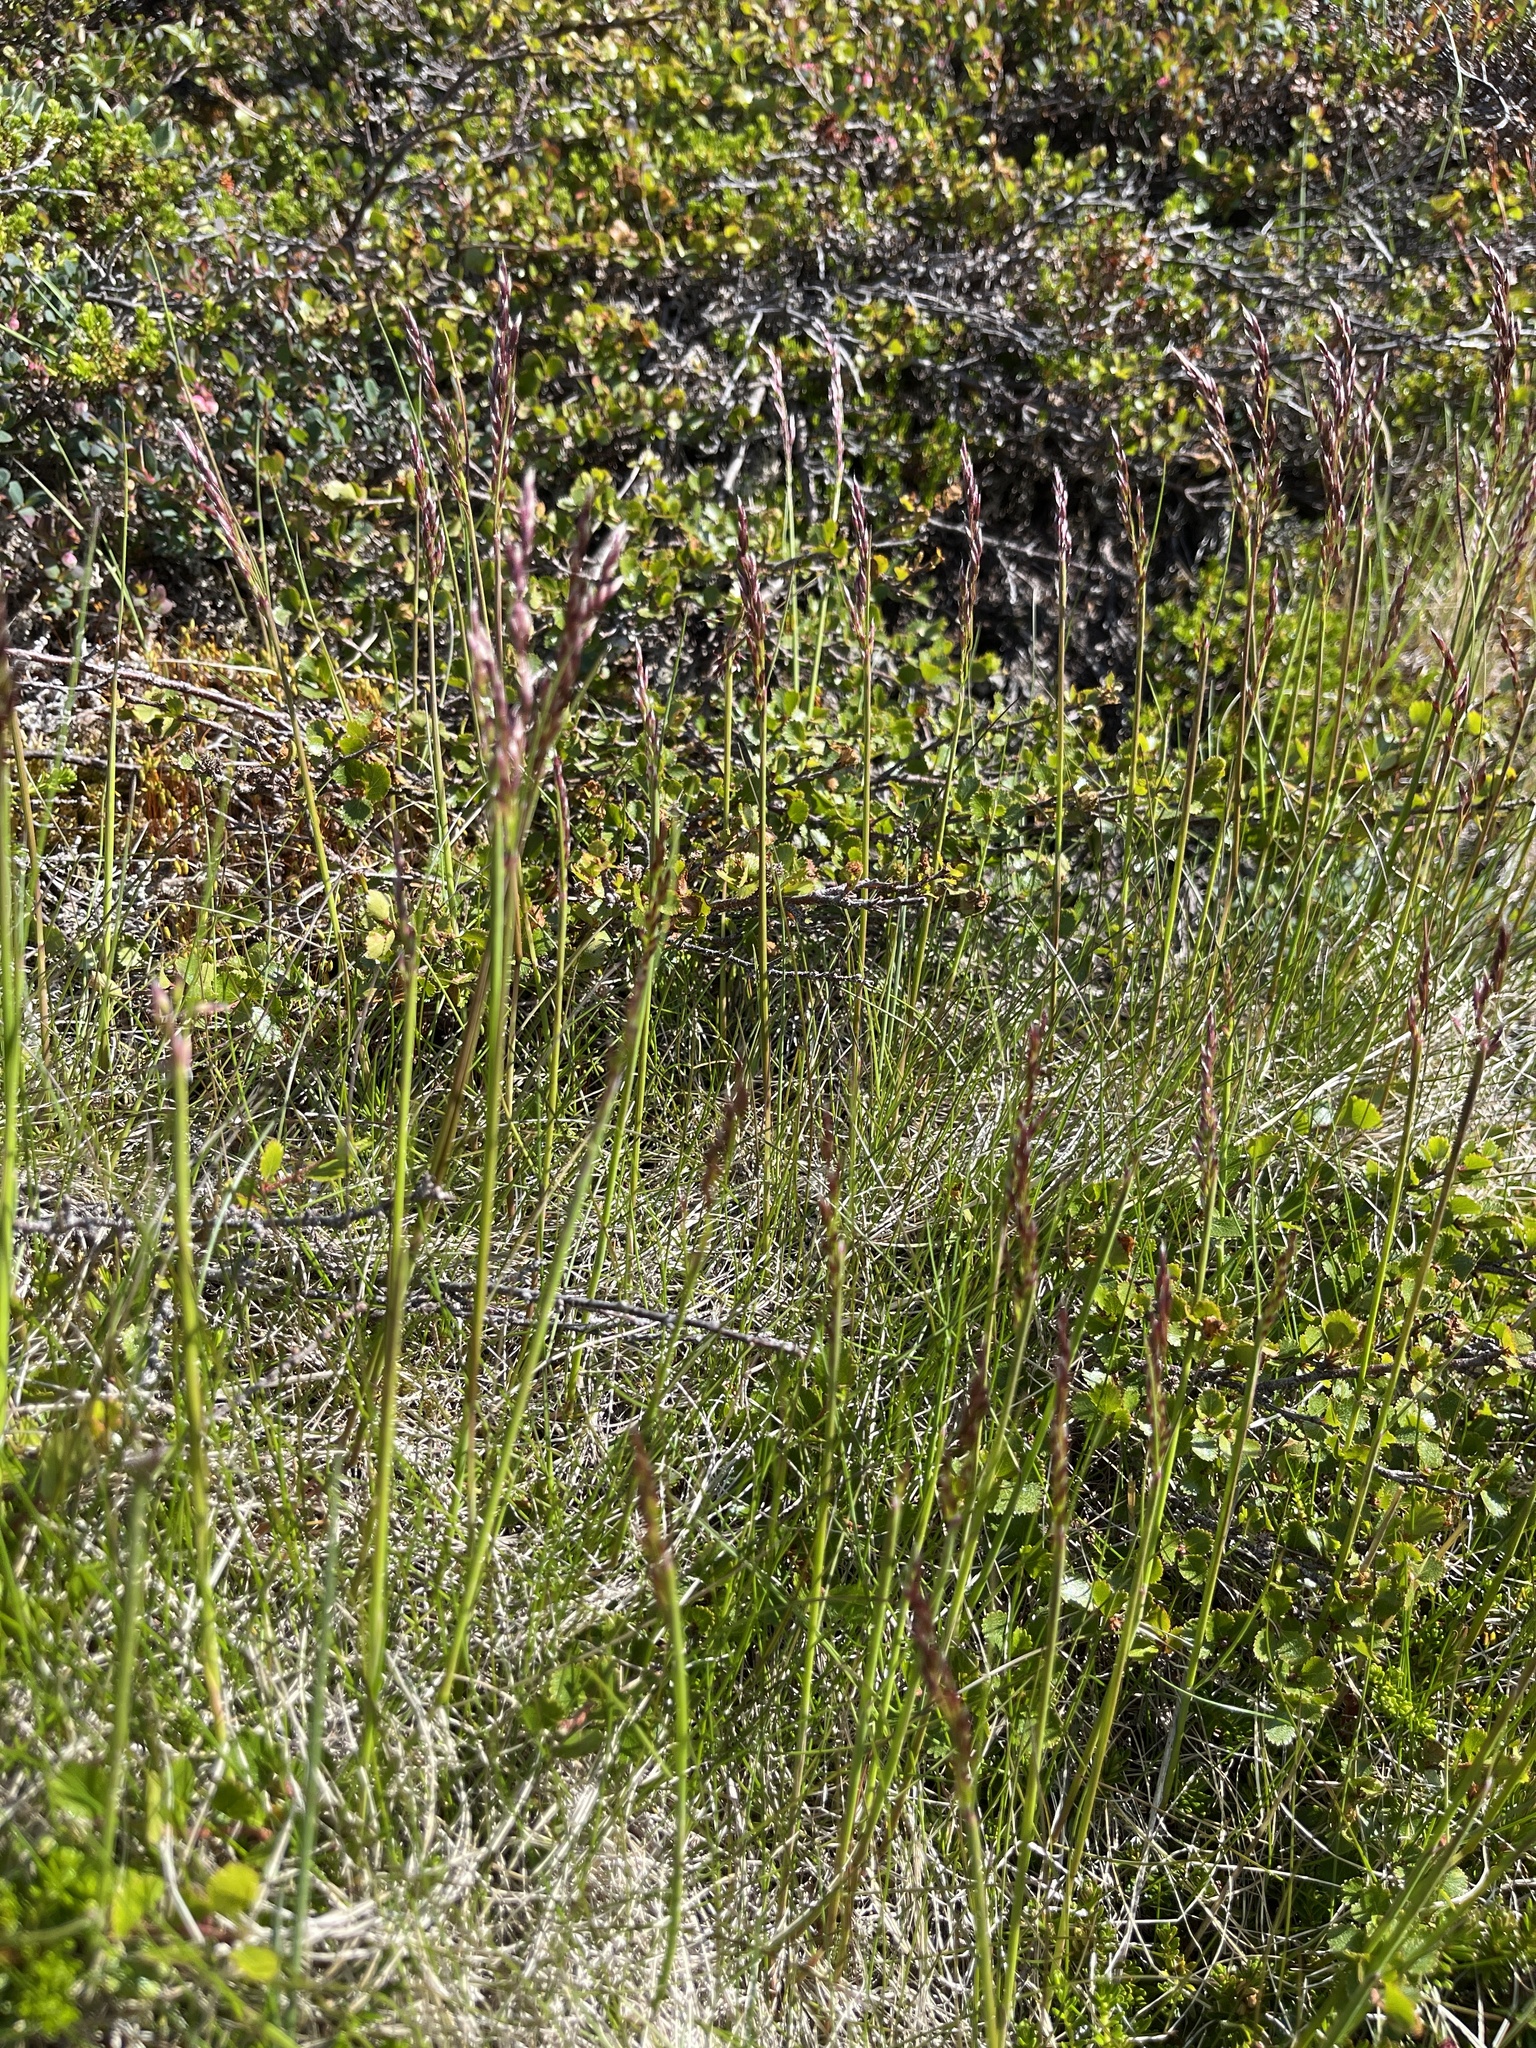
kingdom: Plantae
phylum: Tracheophyta
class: Liliopsida
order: Poales
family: Poaceae
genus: Avenella
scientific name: Avenella flexuosa
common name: Wavy hairgrass
